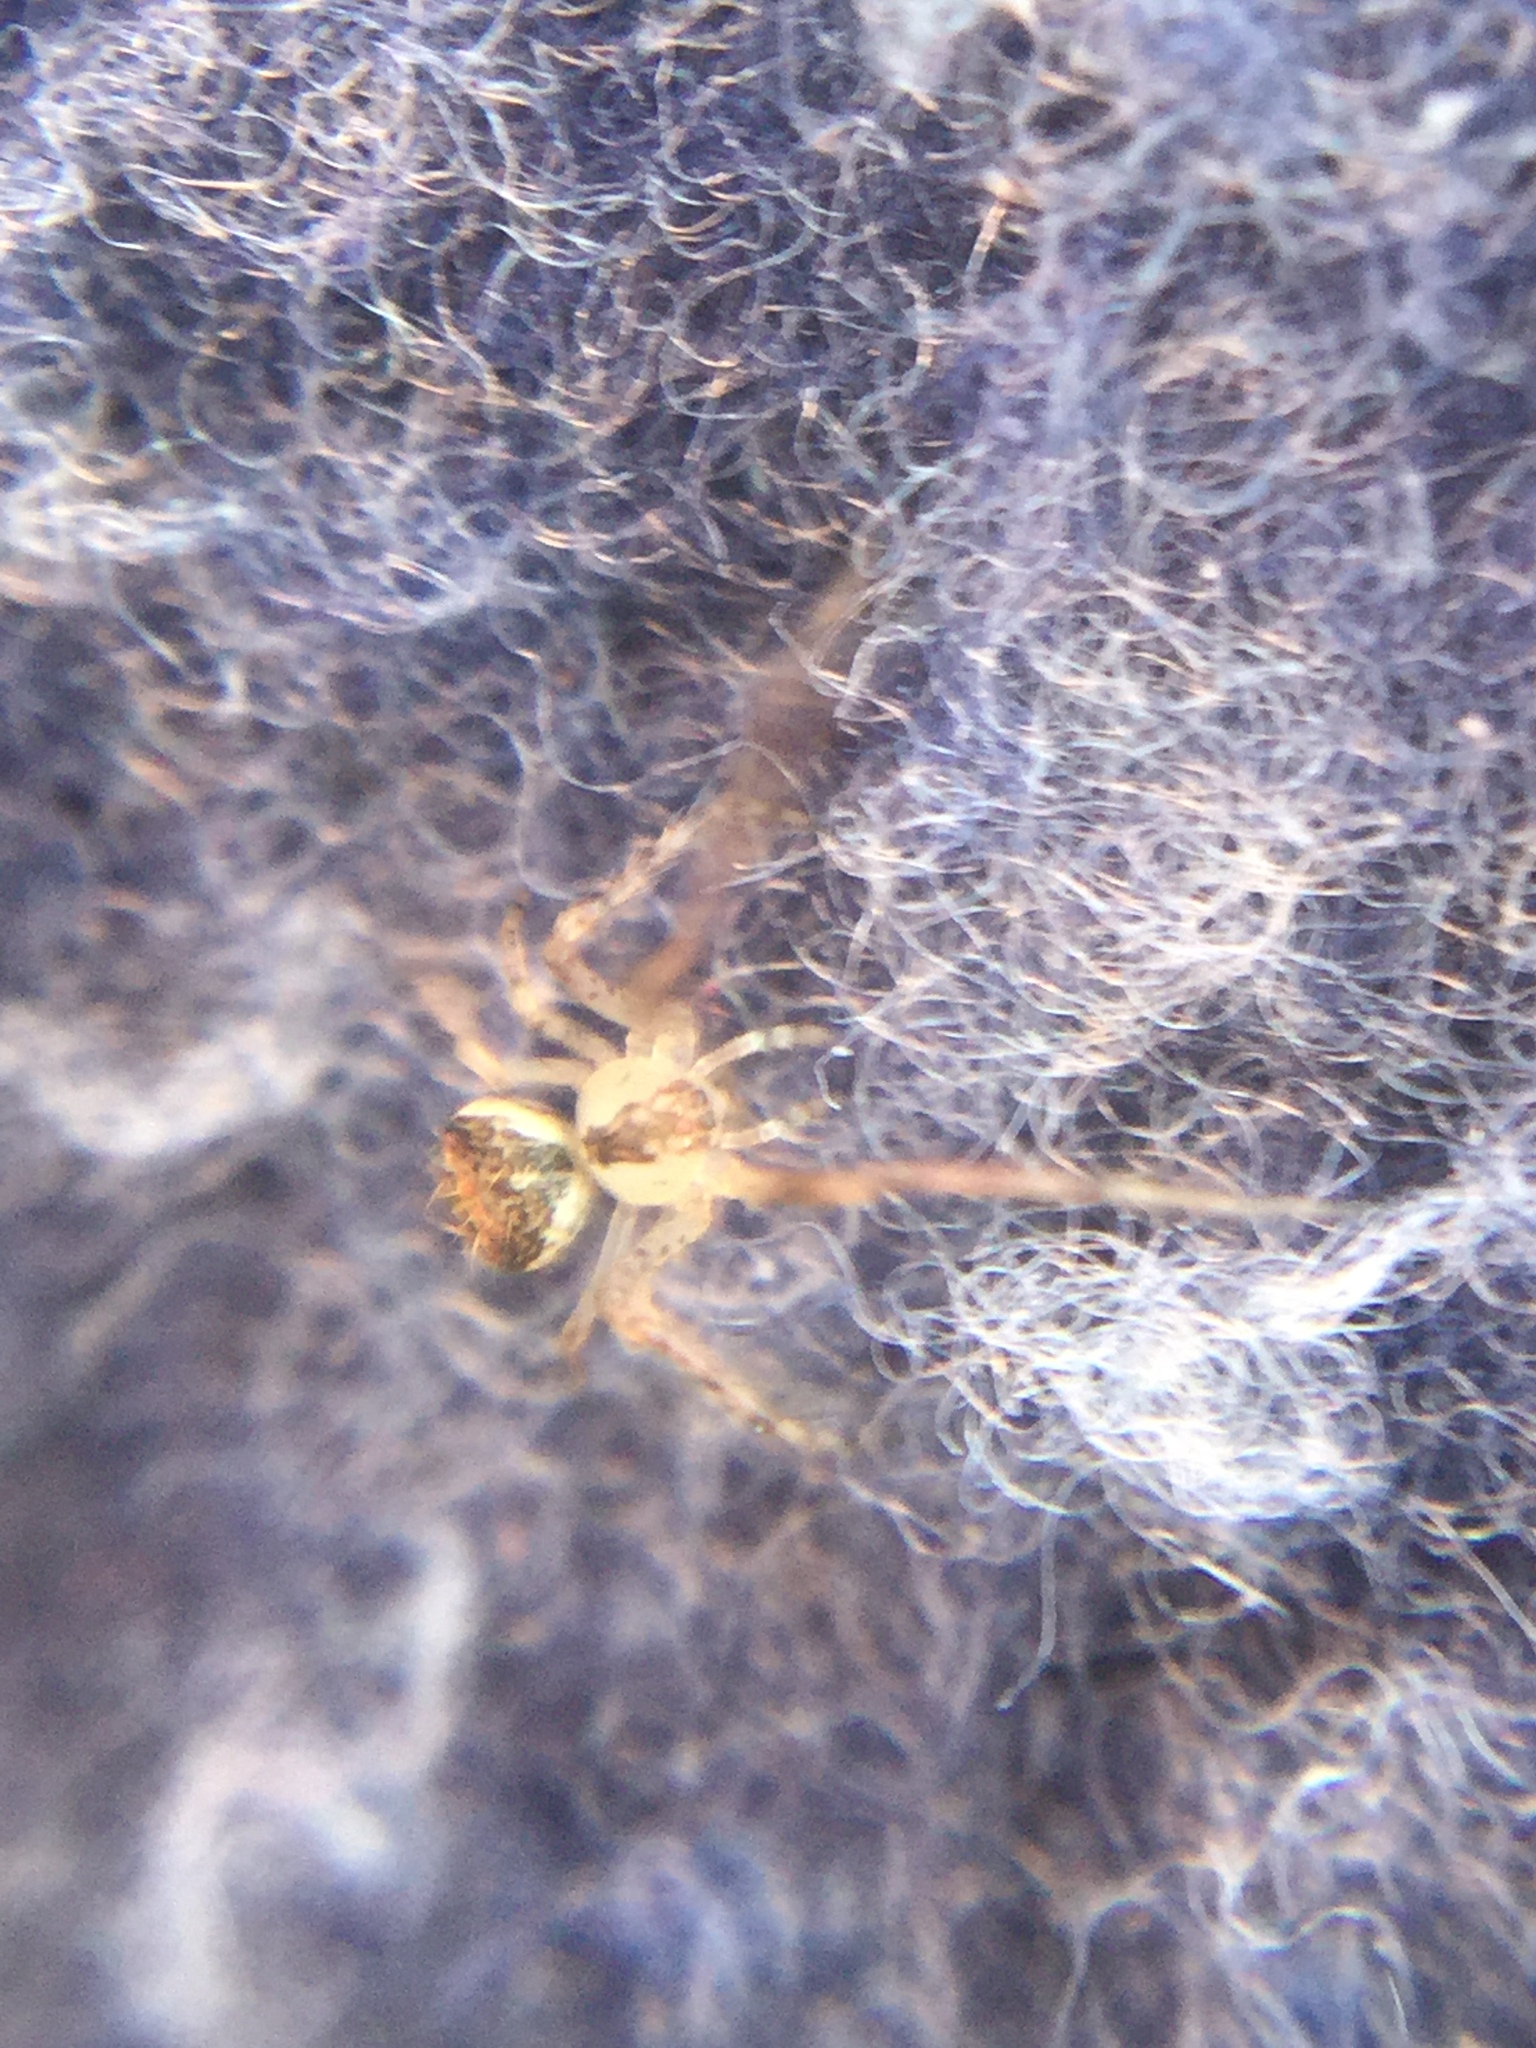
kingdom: Animalia
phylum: Arthropoda
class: Arachnida
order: Araneae
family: Mimetidae
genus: Mimetus
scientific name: Mimetus puritanus
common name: Common pirate spider
